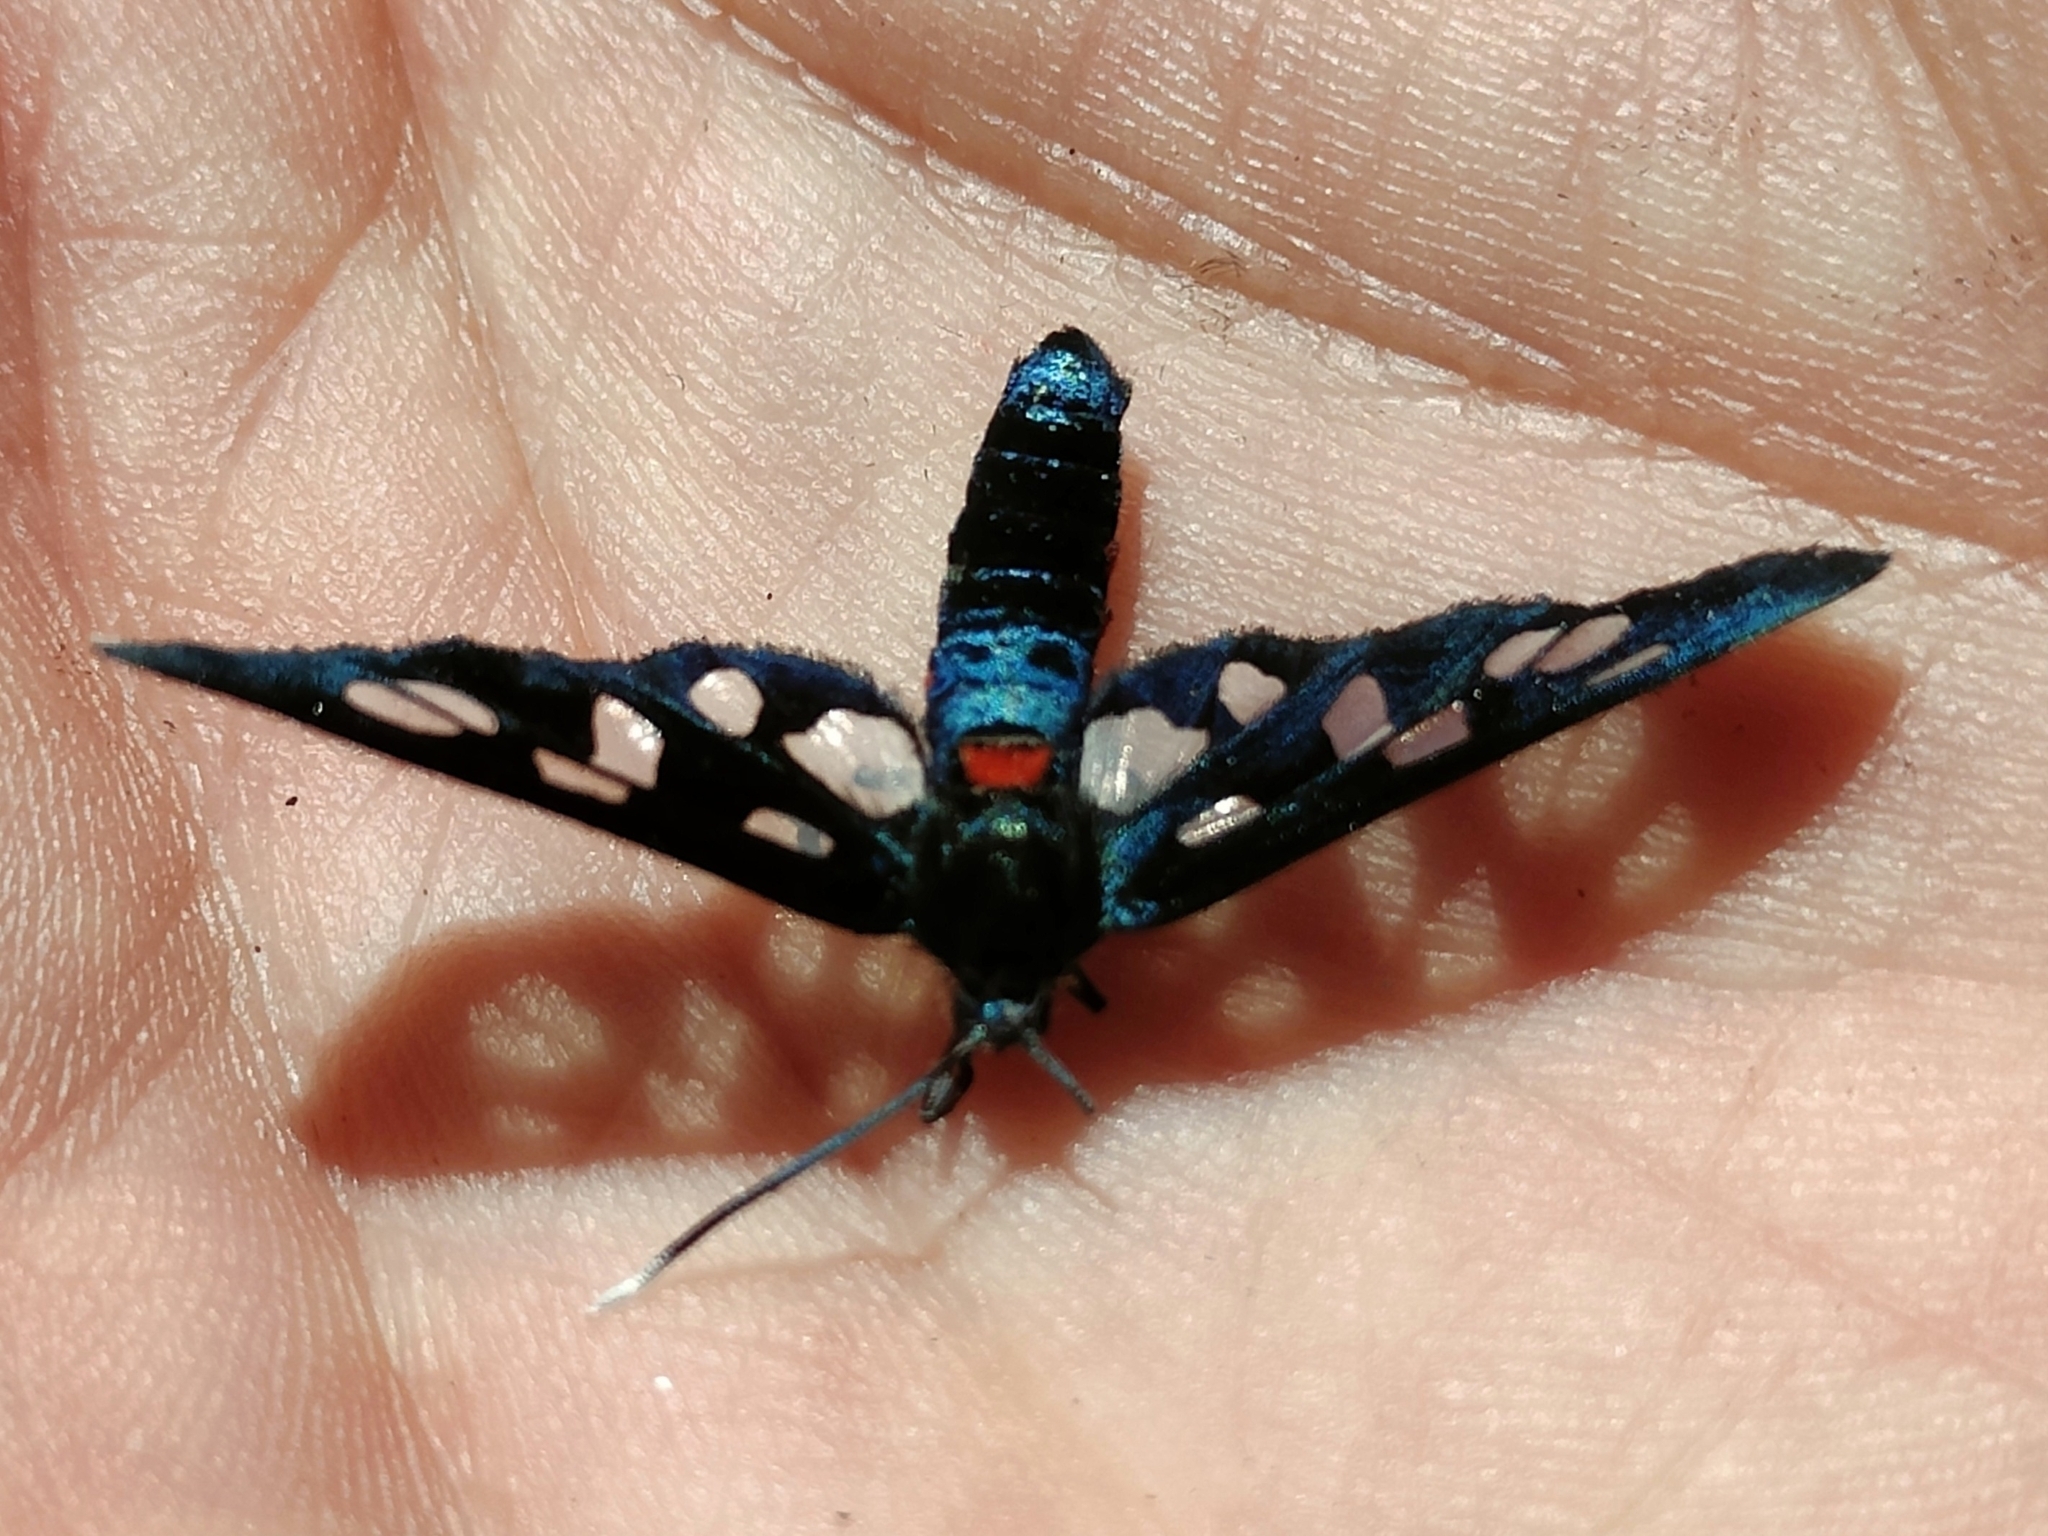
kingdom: Animalia
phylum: Arthropoda
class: Insecta
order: Lepidoptera
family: Erebidae
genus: Amata
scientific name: Amata kuhlweini
